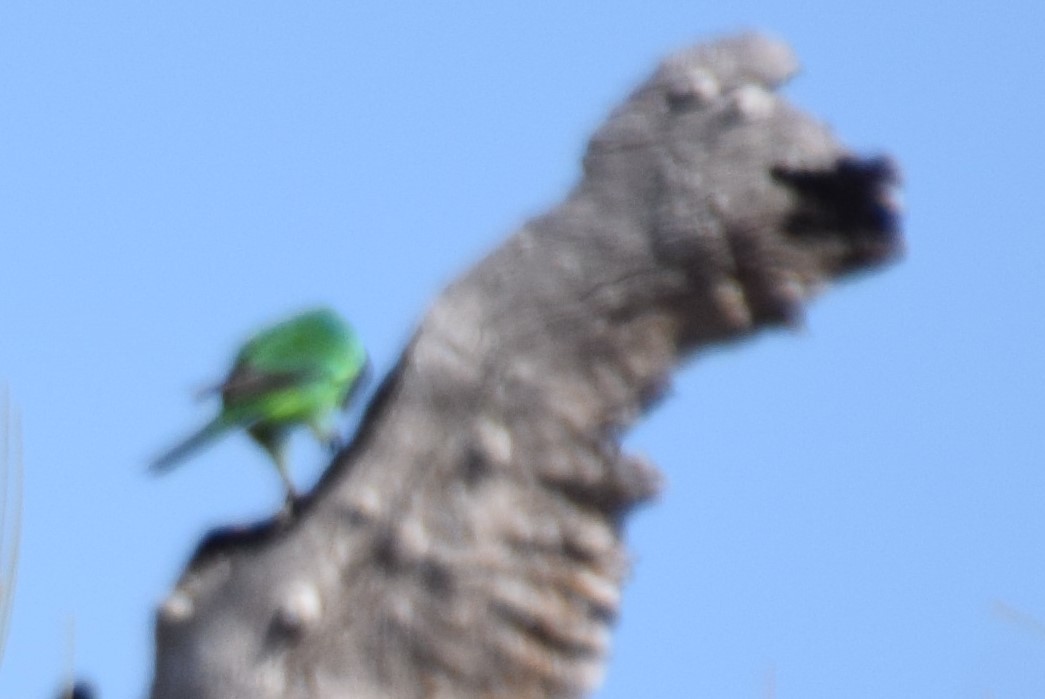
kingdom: Animalia
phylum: Chordata
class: Aves
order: Psittaciformes
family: Psittacidae
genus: Barnardius
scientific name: Barnardius zonarius
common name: Australian ringneck
